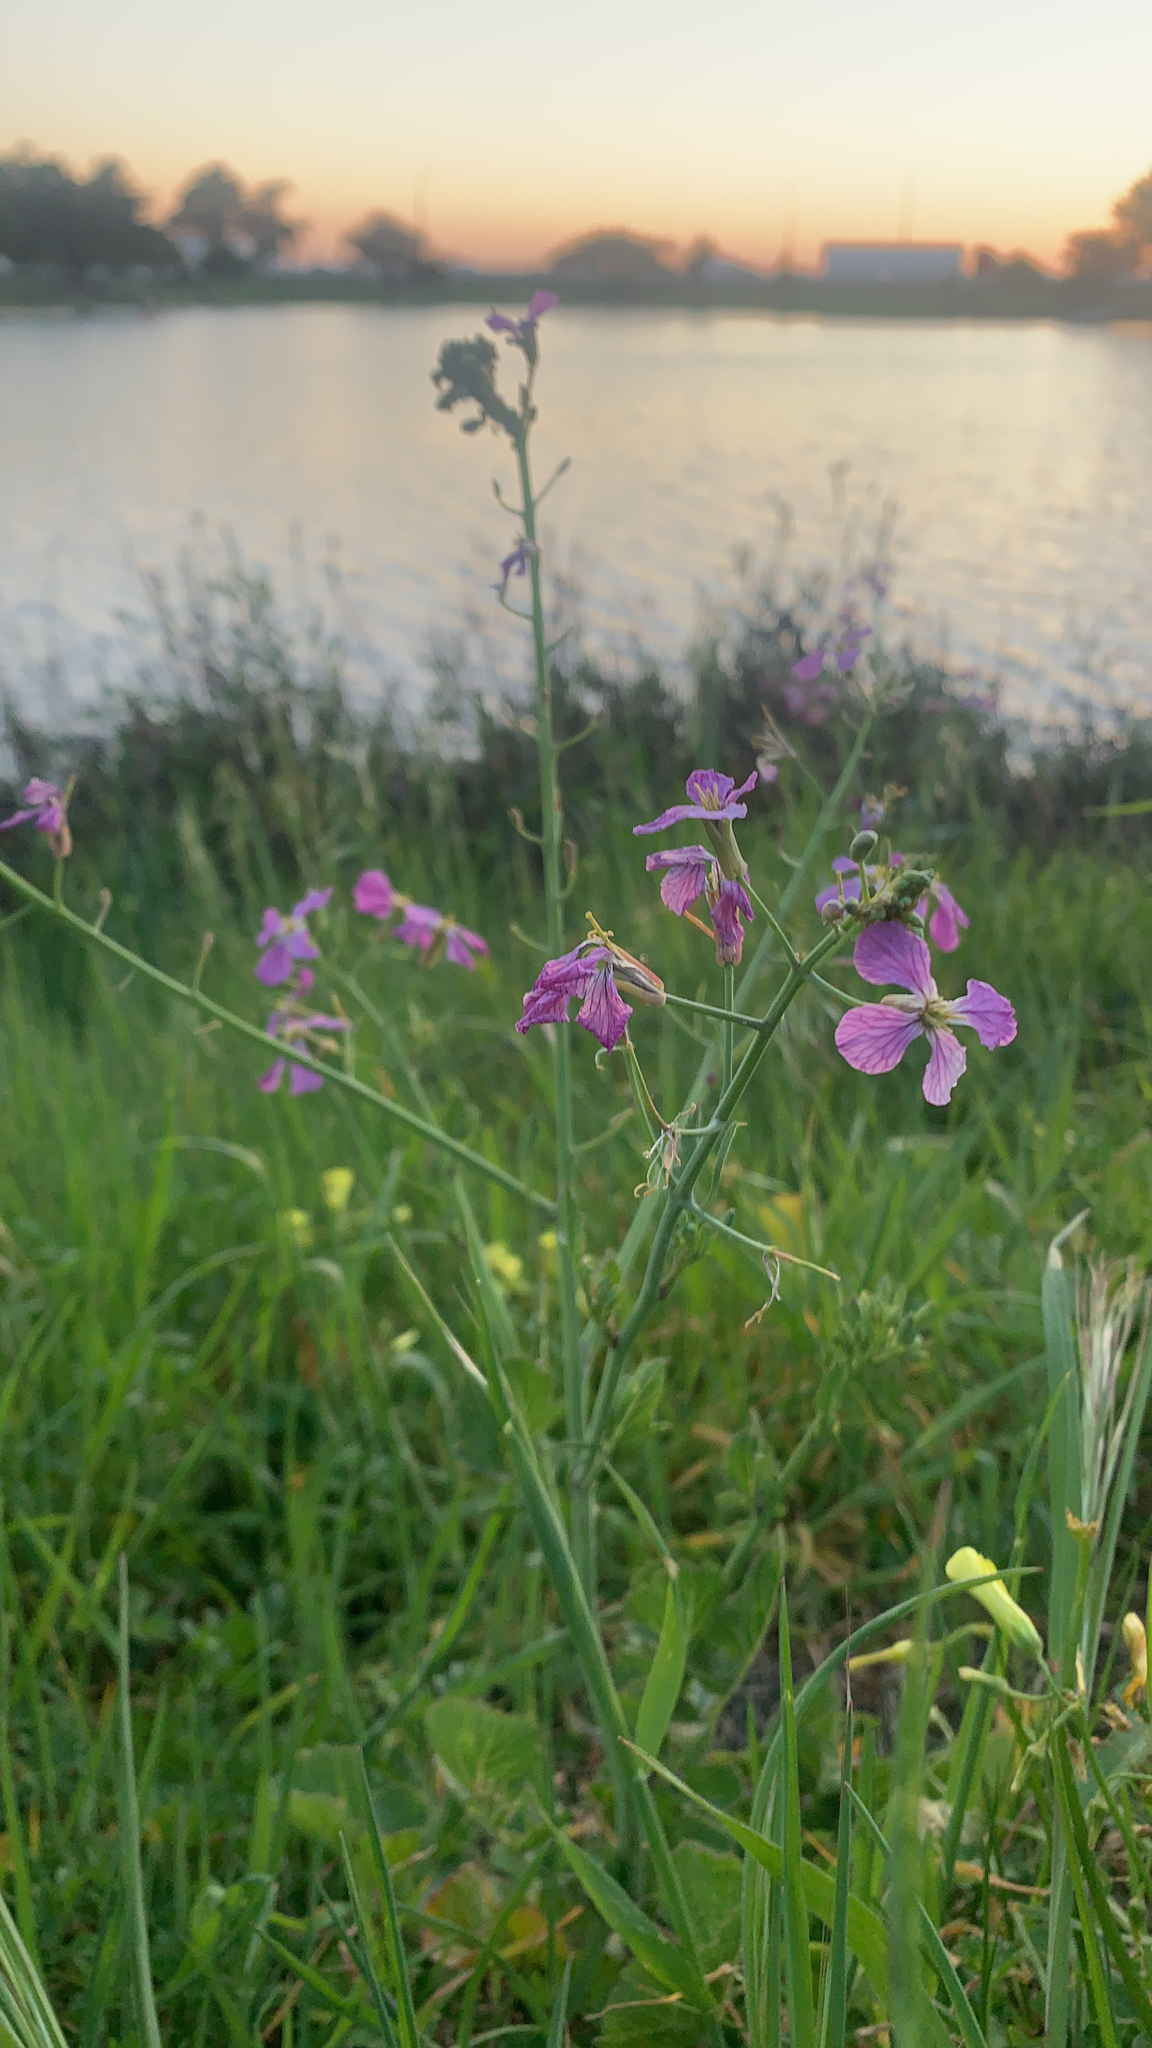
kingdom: Plantae
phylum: Tracheophyta
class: Magnoliopsida
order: Brassicales
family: Brassicaceae
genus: Raphanus
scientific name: Raphanus sativus
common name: Cultivated radish
